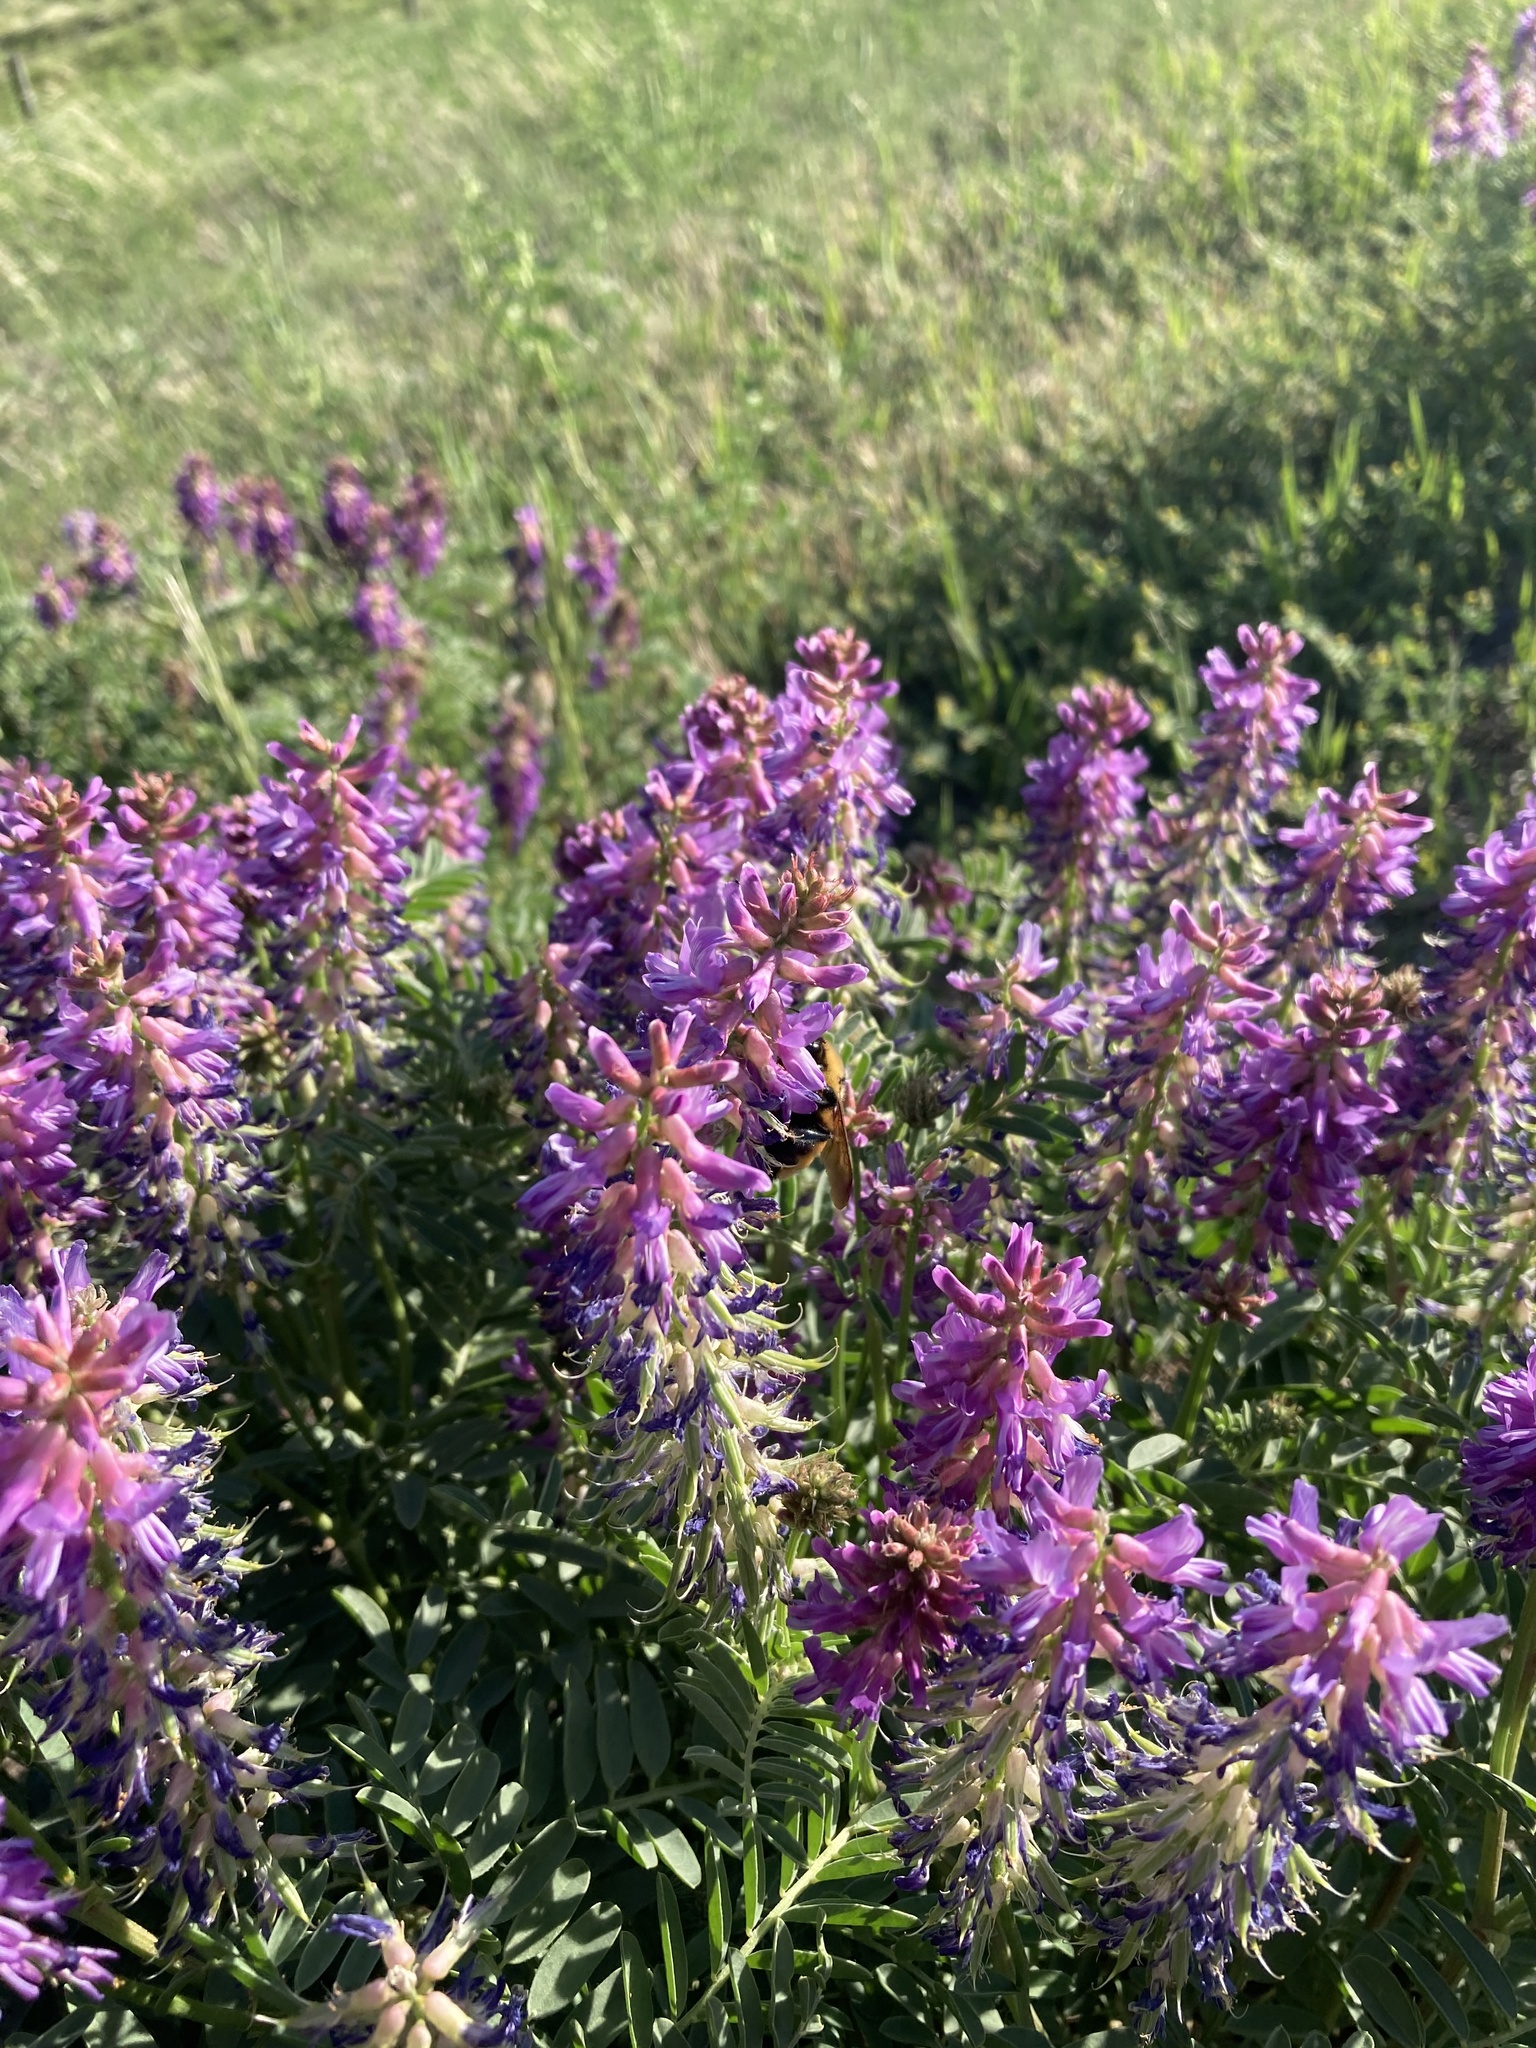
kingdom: Plantae
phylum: Tracheophyta
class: Magnoliopsida
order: Fabales
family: Fabaceae
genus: Astragalus
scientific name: Astragalus bisulcatus
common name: Two-groove milk-vetch
